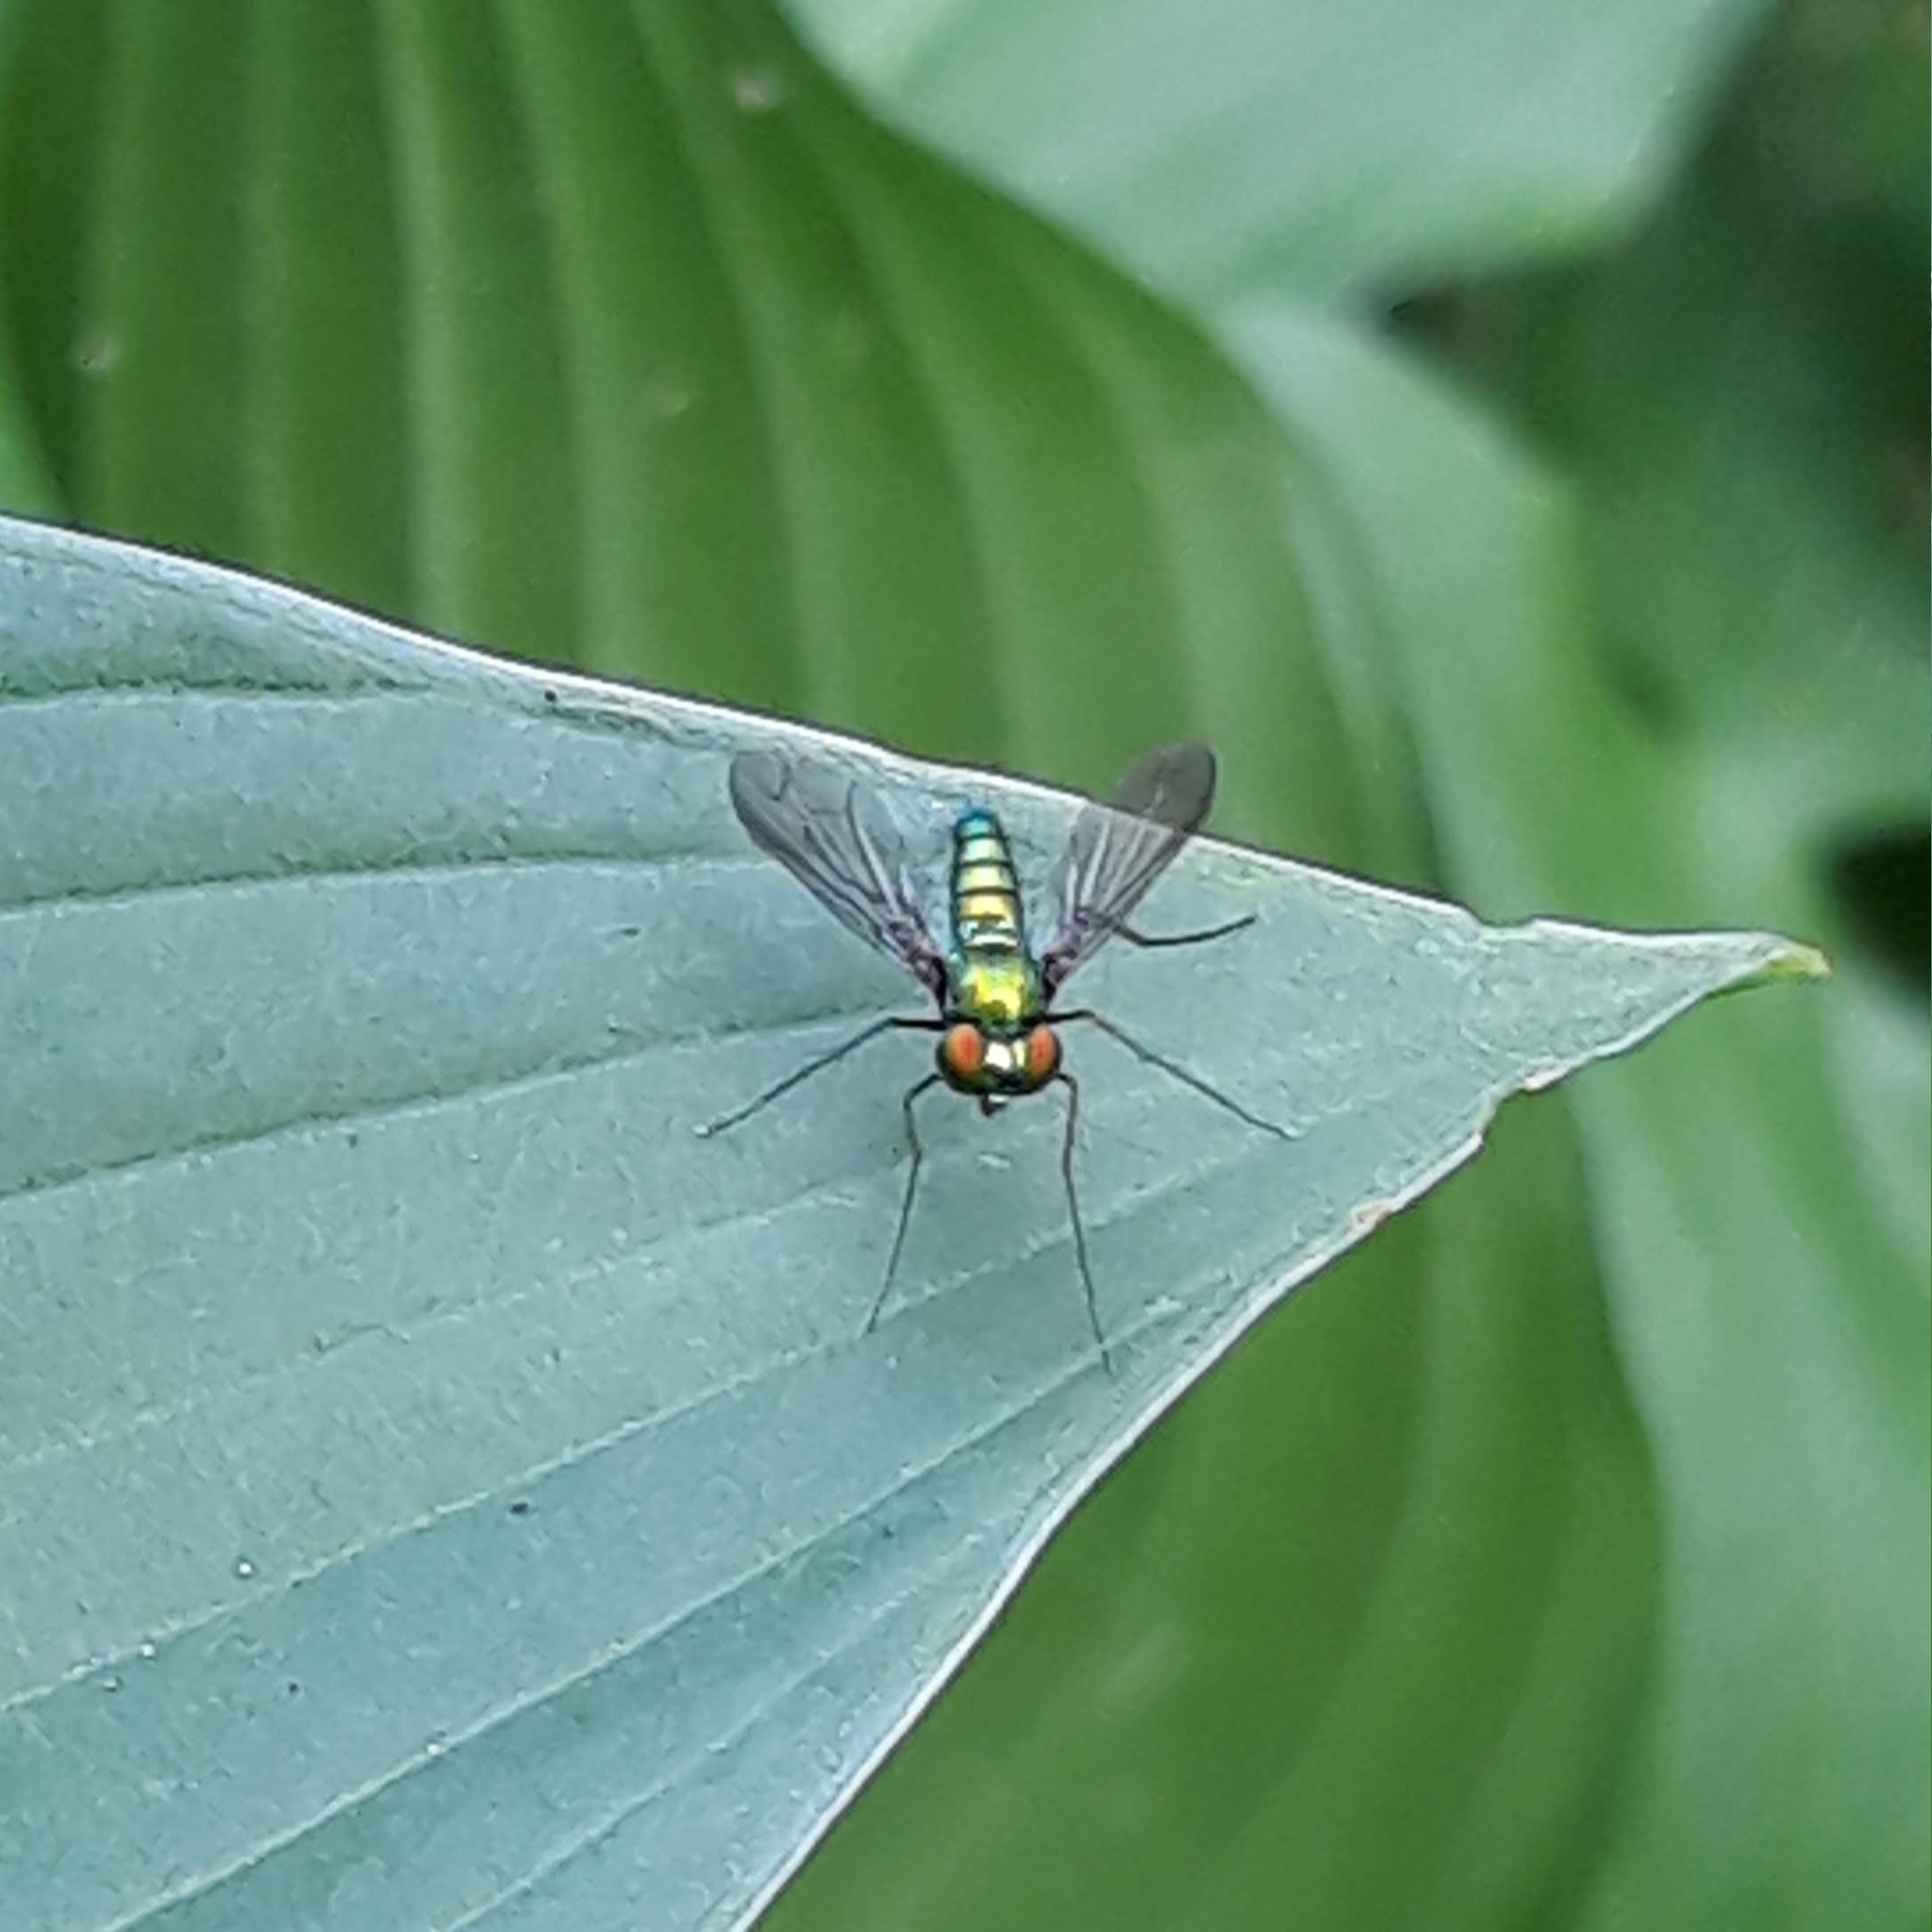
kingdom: Animalia
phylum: Arthropoda
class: Insecta
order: Diptera
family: Dolichopodidae
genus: Condylostylus
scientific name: Condylostylus
